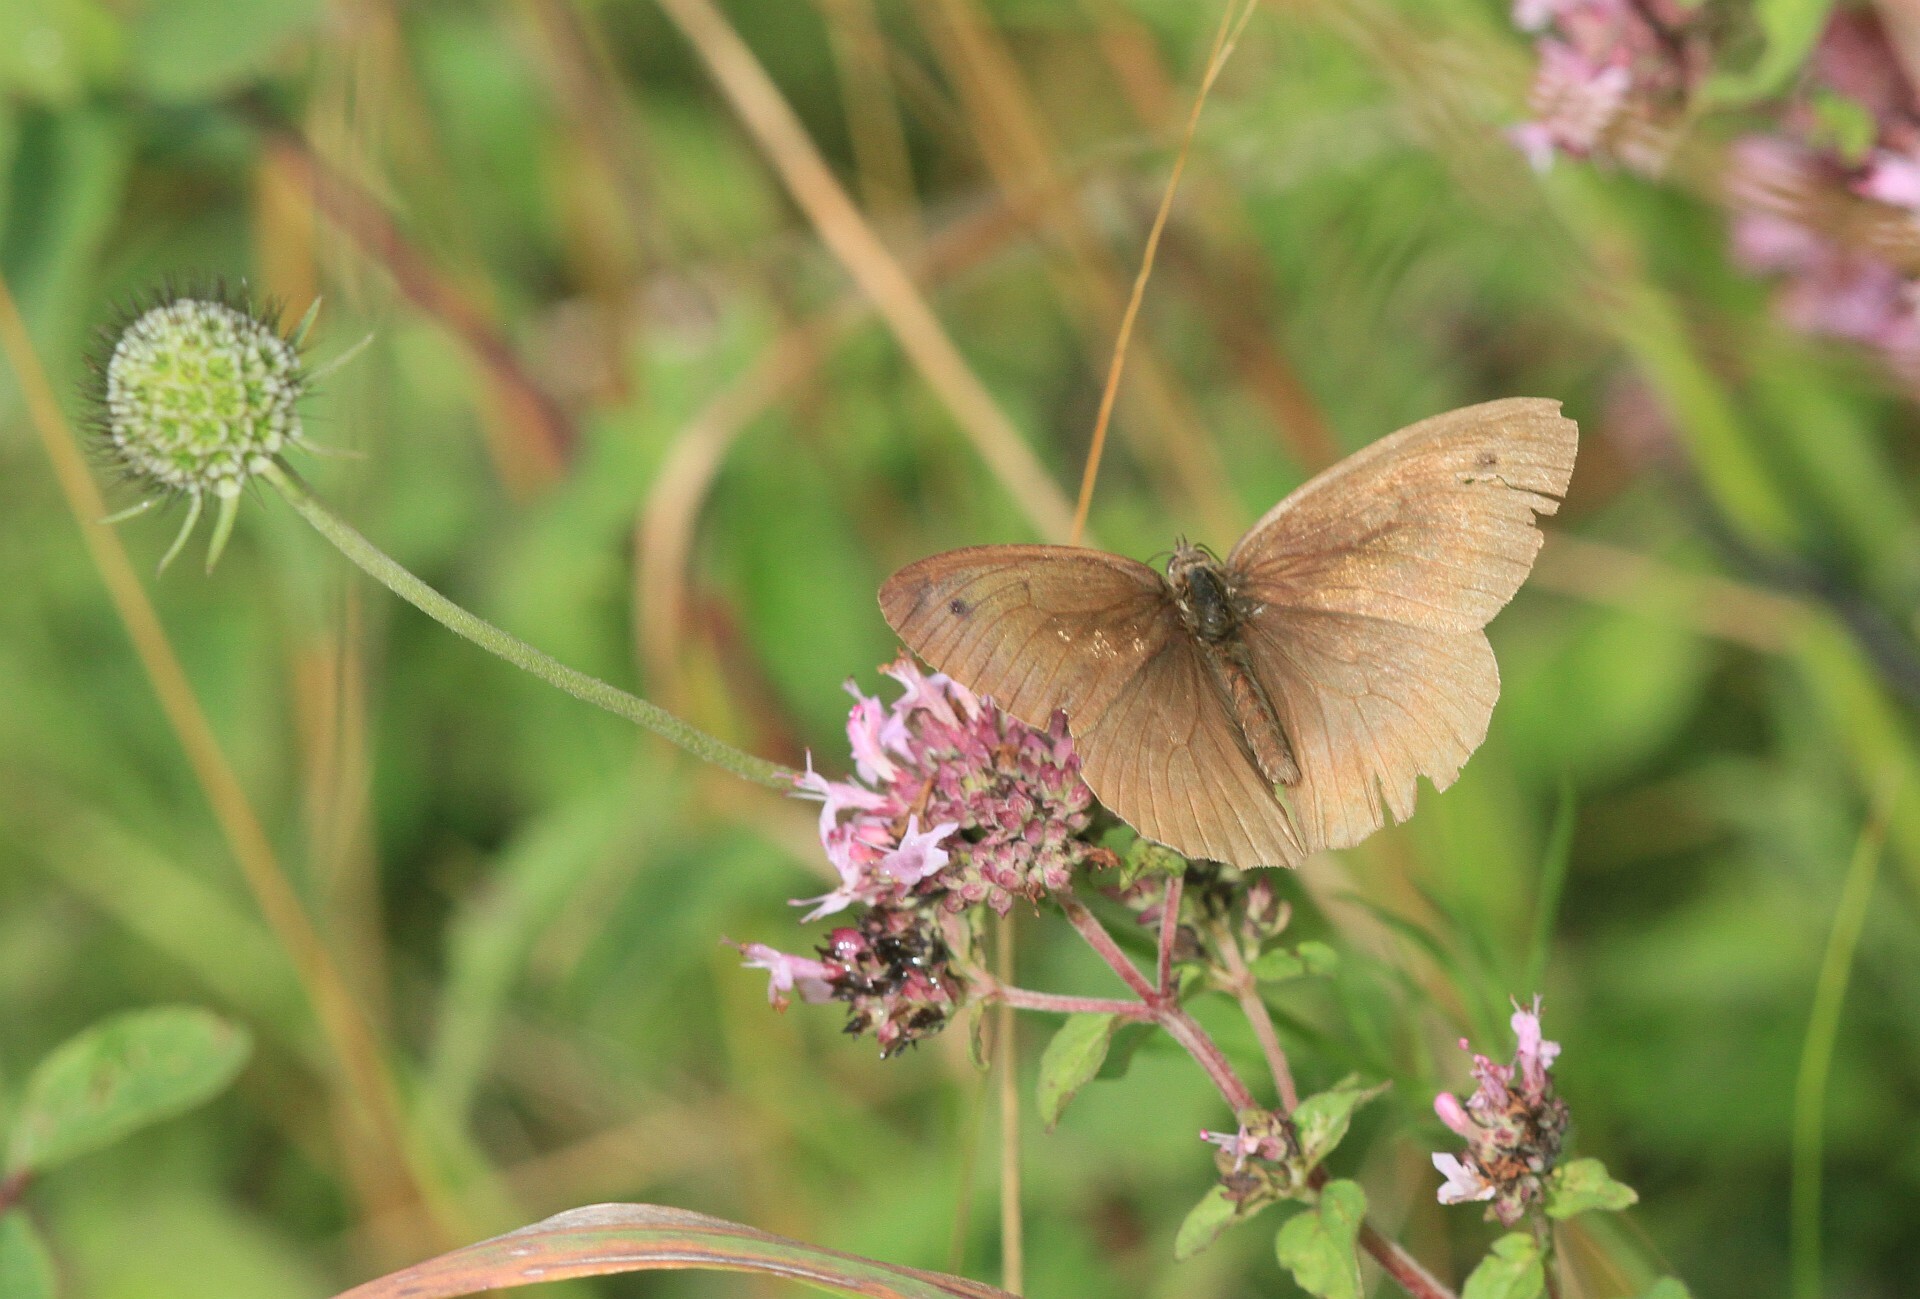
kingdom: Animalia
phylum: Arthropoda
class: Insecta
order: Lepidoptera
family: Nymphalidae
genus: Maniola
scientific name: Maniola jurtina
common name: Meadow brown
